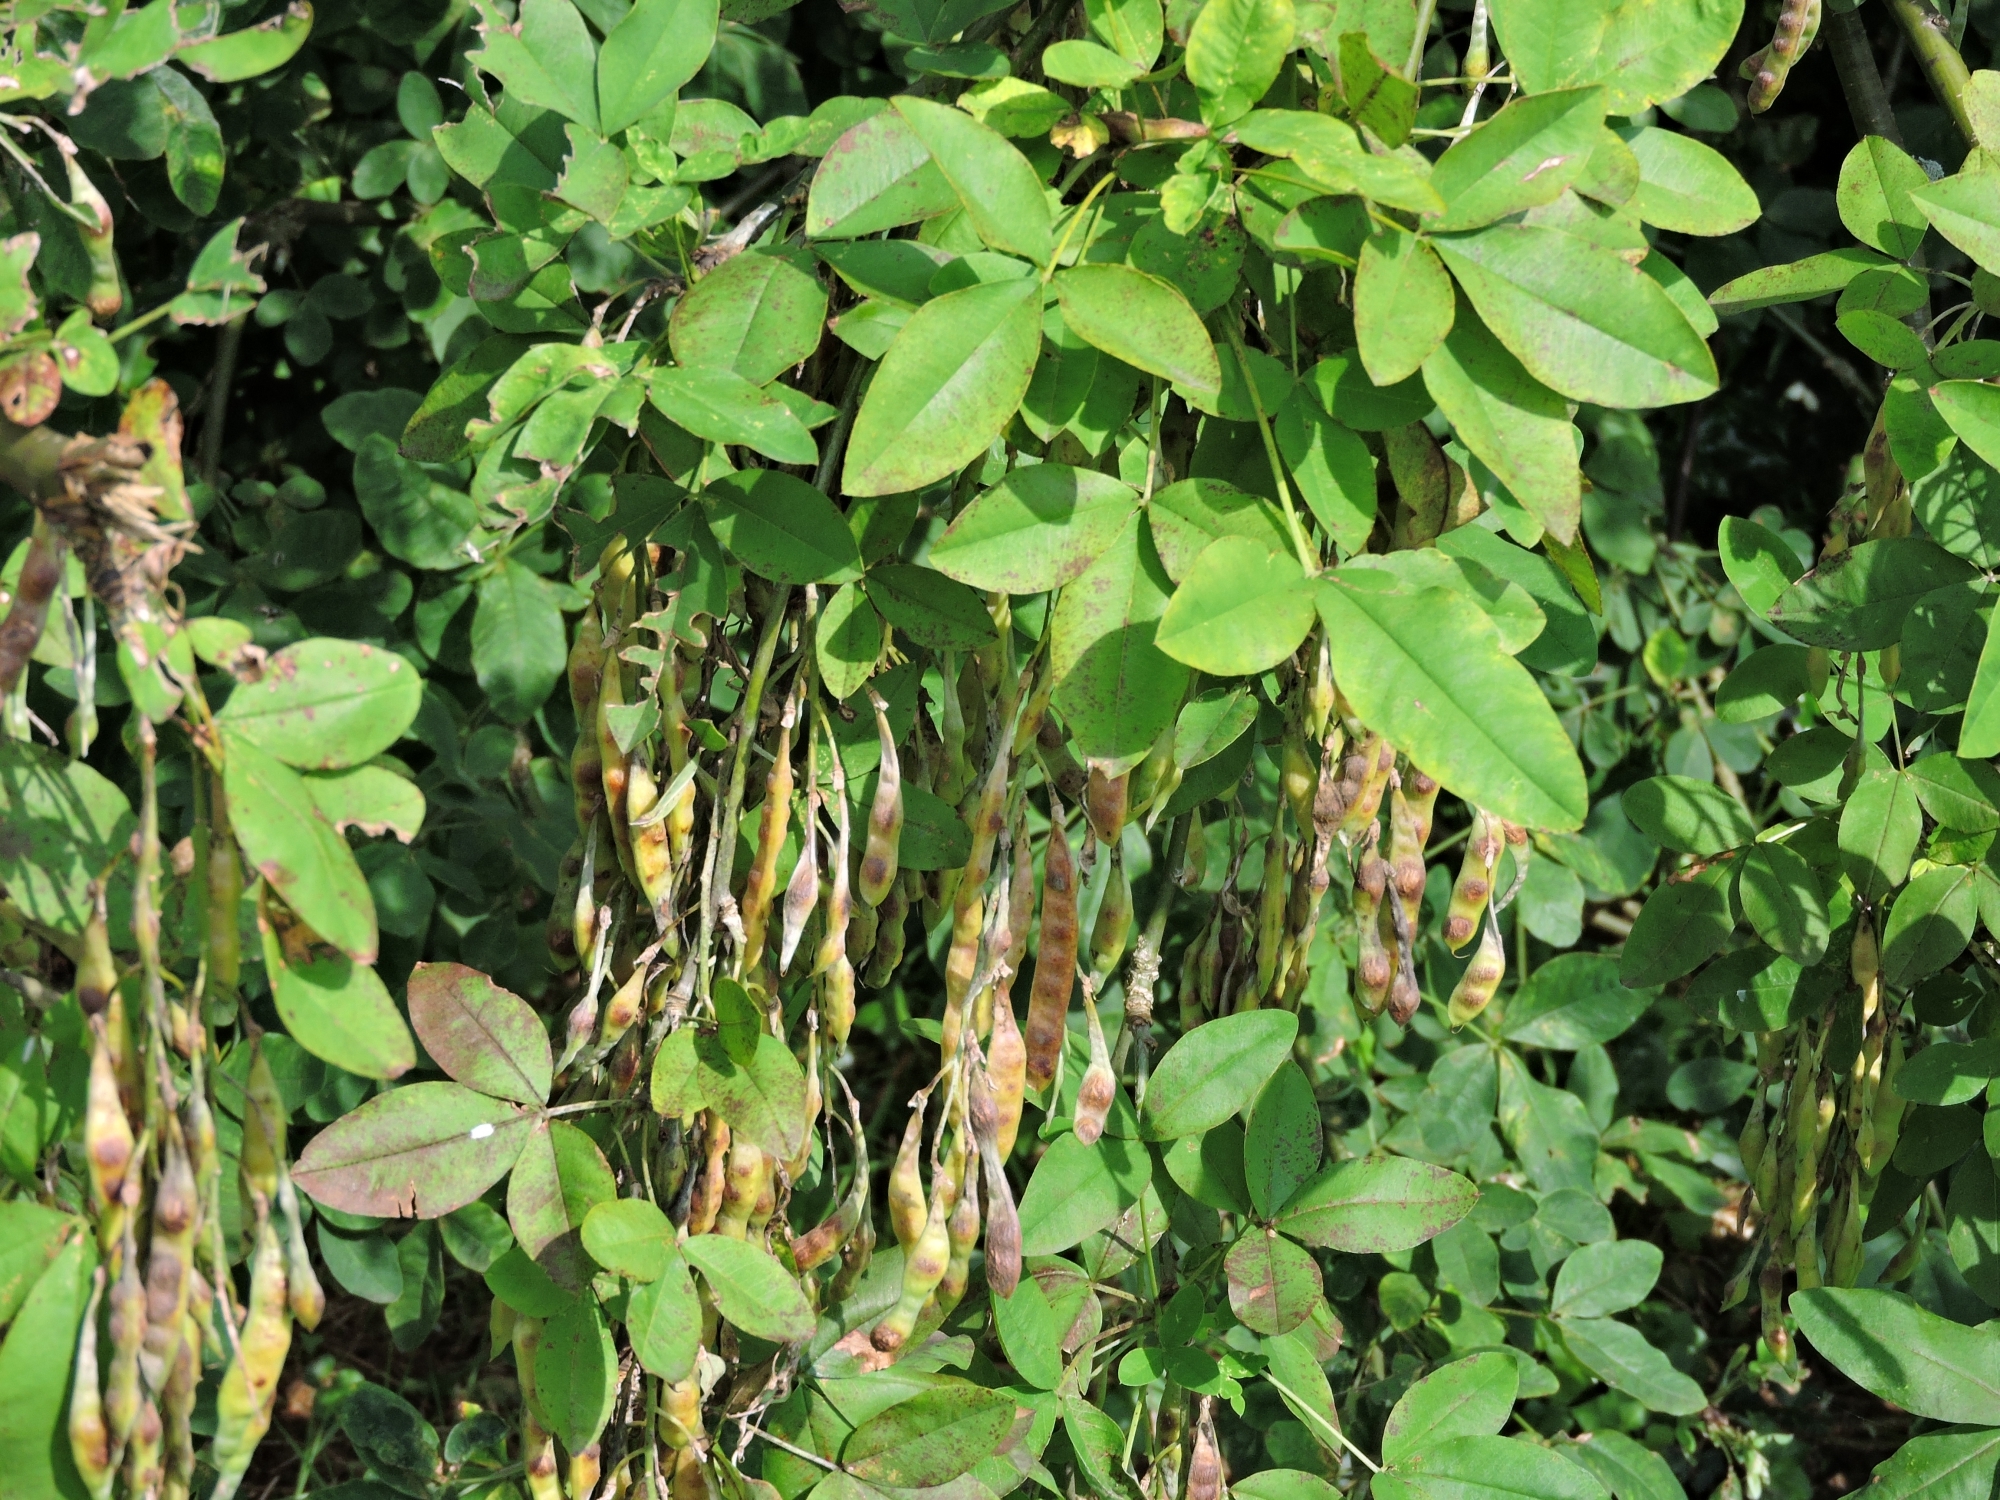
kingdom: Plantae
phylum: Tracheophyta
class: Magnoliopsida
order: Fabales
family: Fabaceae
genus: Laburnum
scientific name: Laburnum anagyroides
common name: Laburnum
